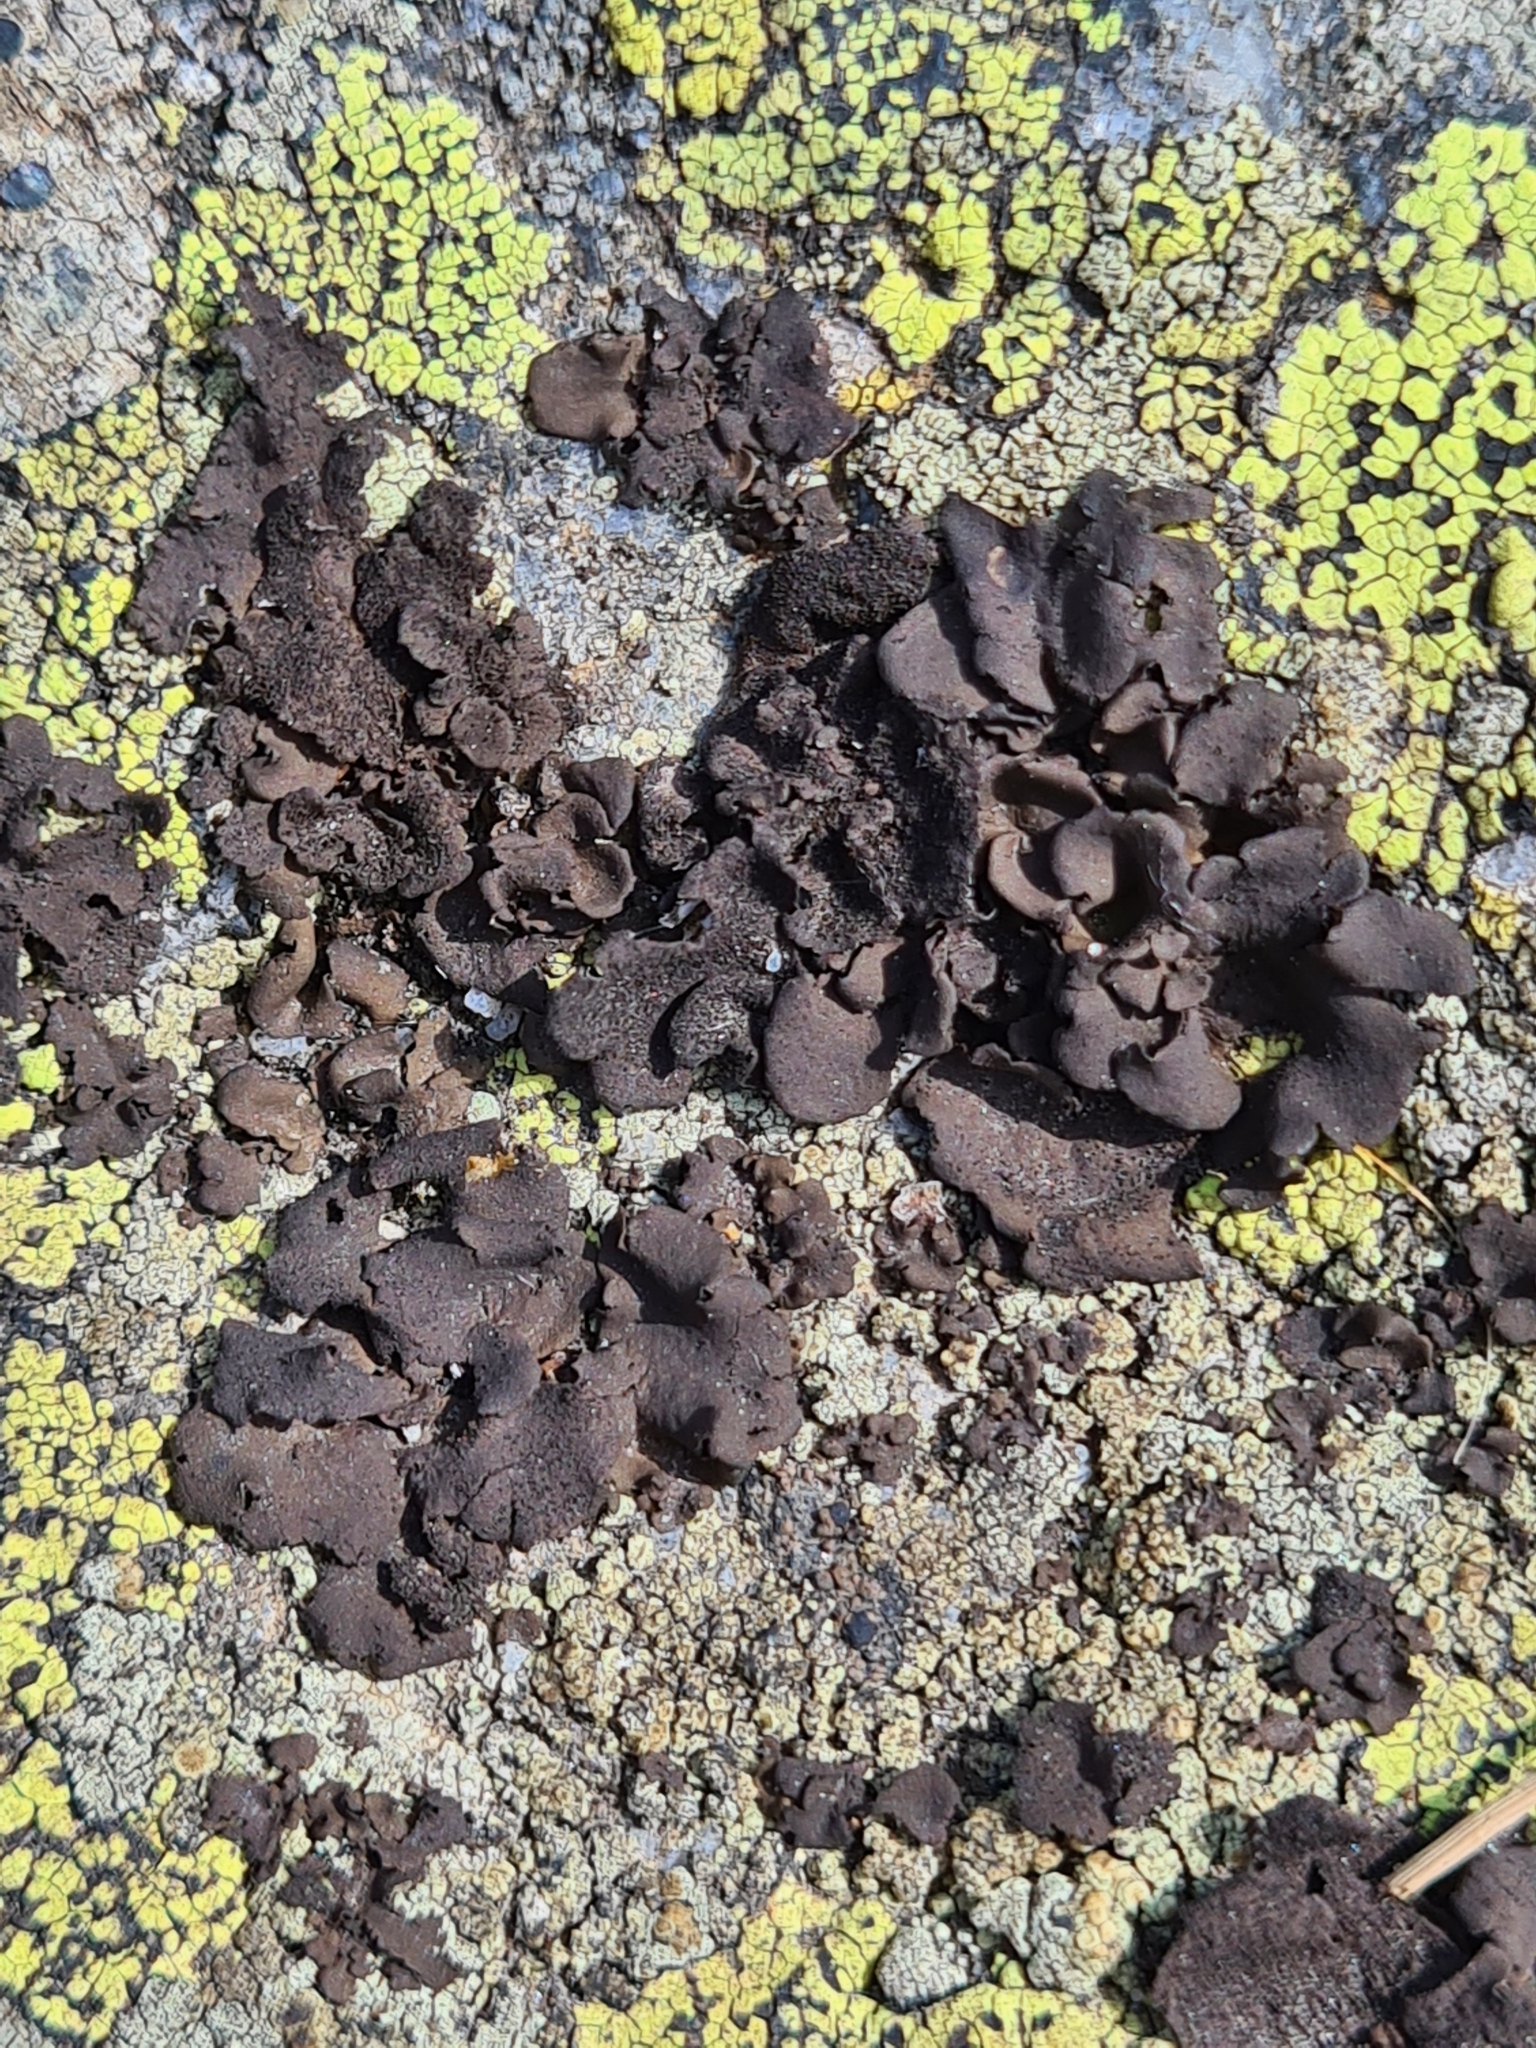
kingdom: Fungi
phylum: Ascomycota
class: Lecanoromycetes
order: Umbilicariales
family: Umbilicariaceae
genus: Umbilicaria
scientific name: Umbilicaria deusta
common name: Peppered rock tripe
